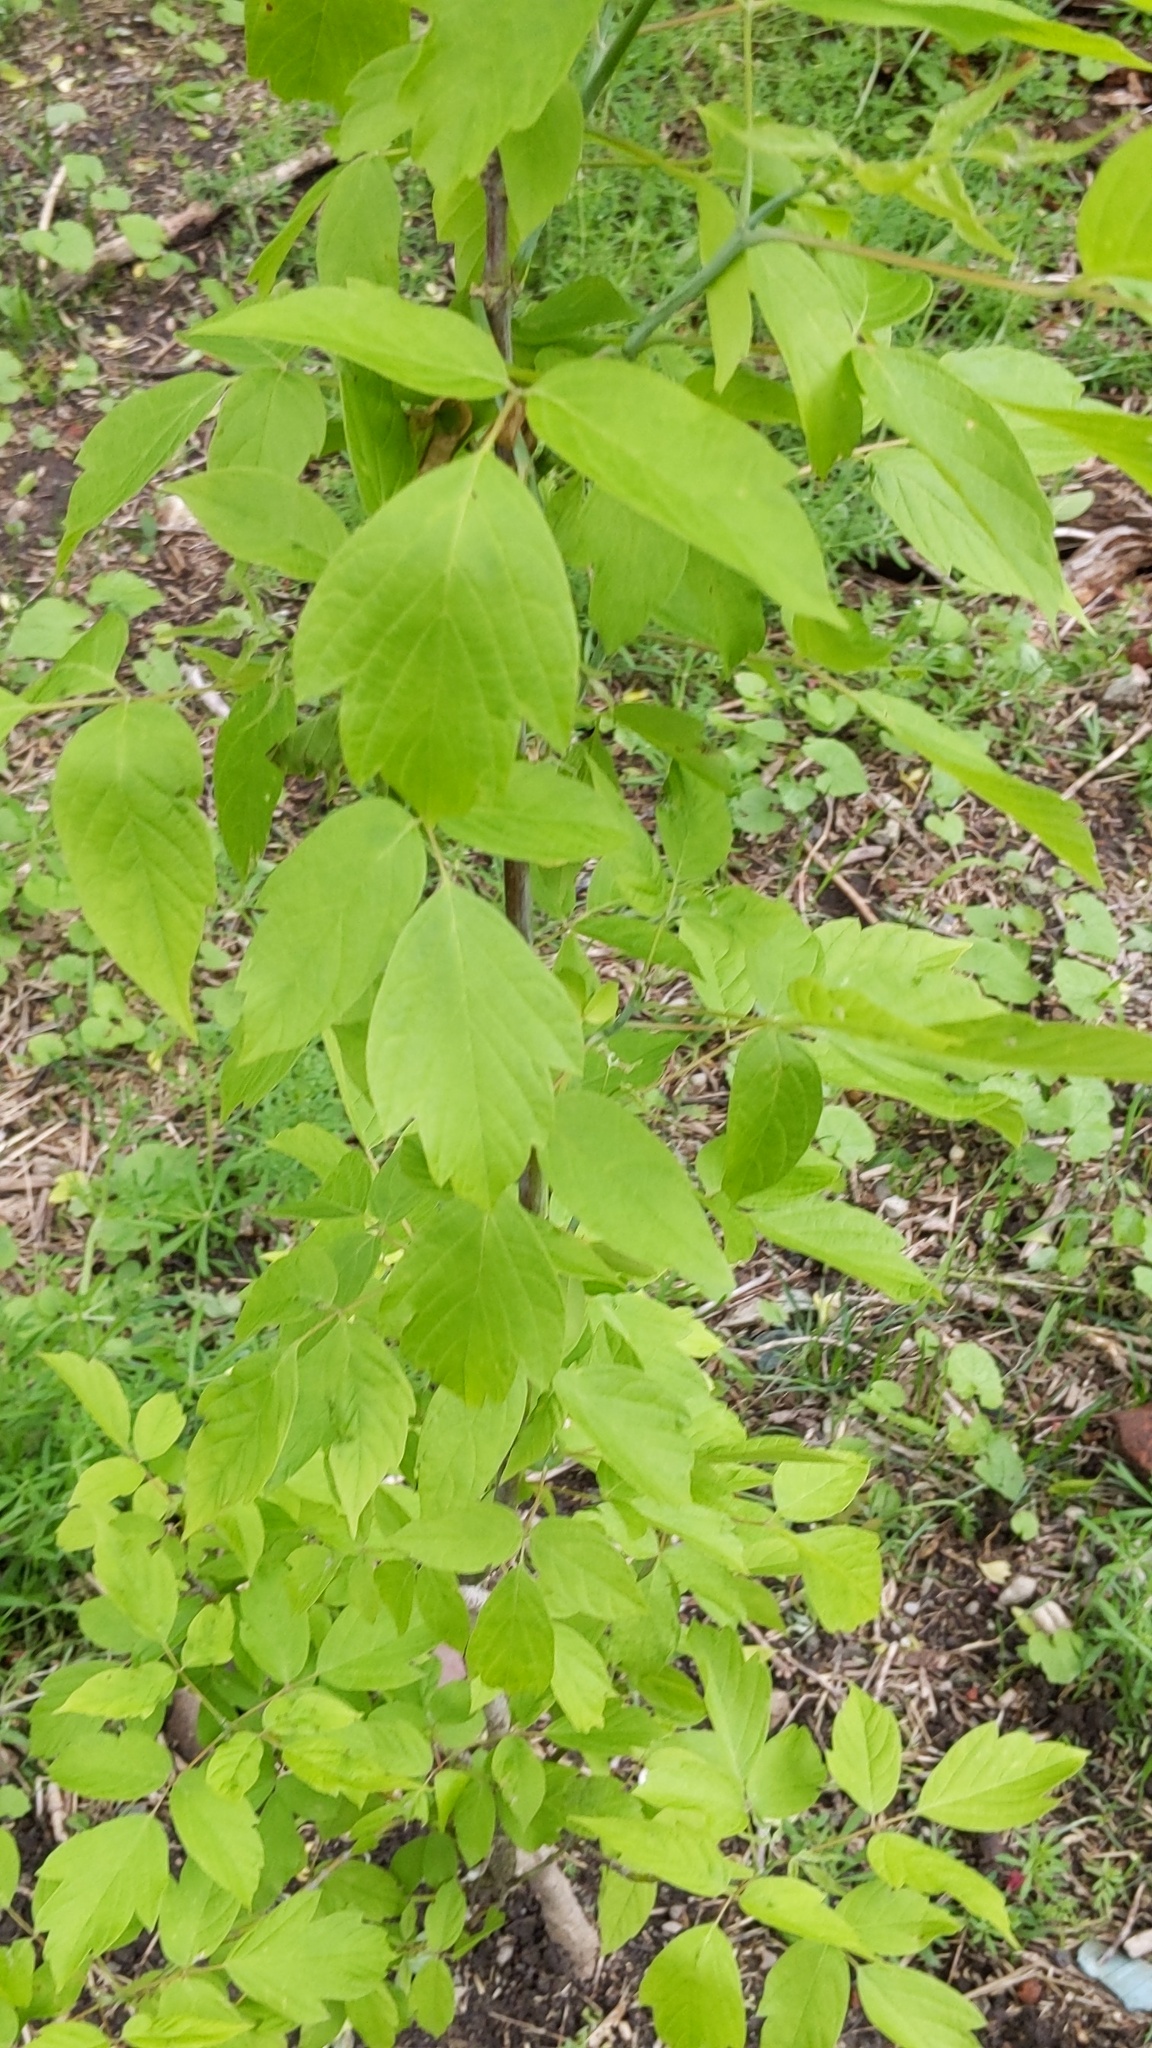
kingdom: Plantae
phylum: Tracheophyta
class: Magnoliopsida
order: Sapindales
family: Sapindaceae
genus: Acer
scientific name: Acer negundo
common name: Ashleaf maple
